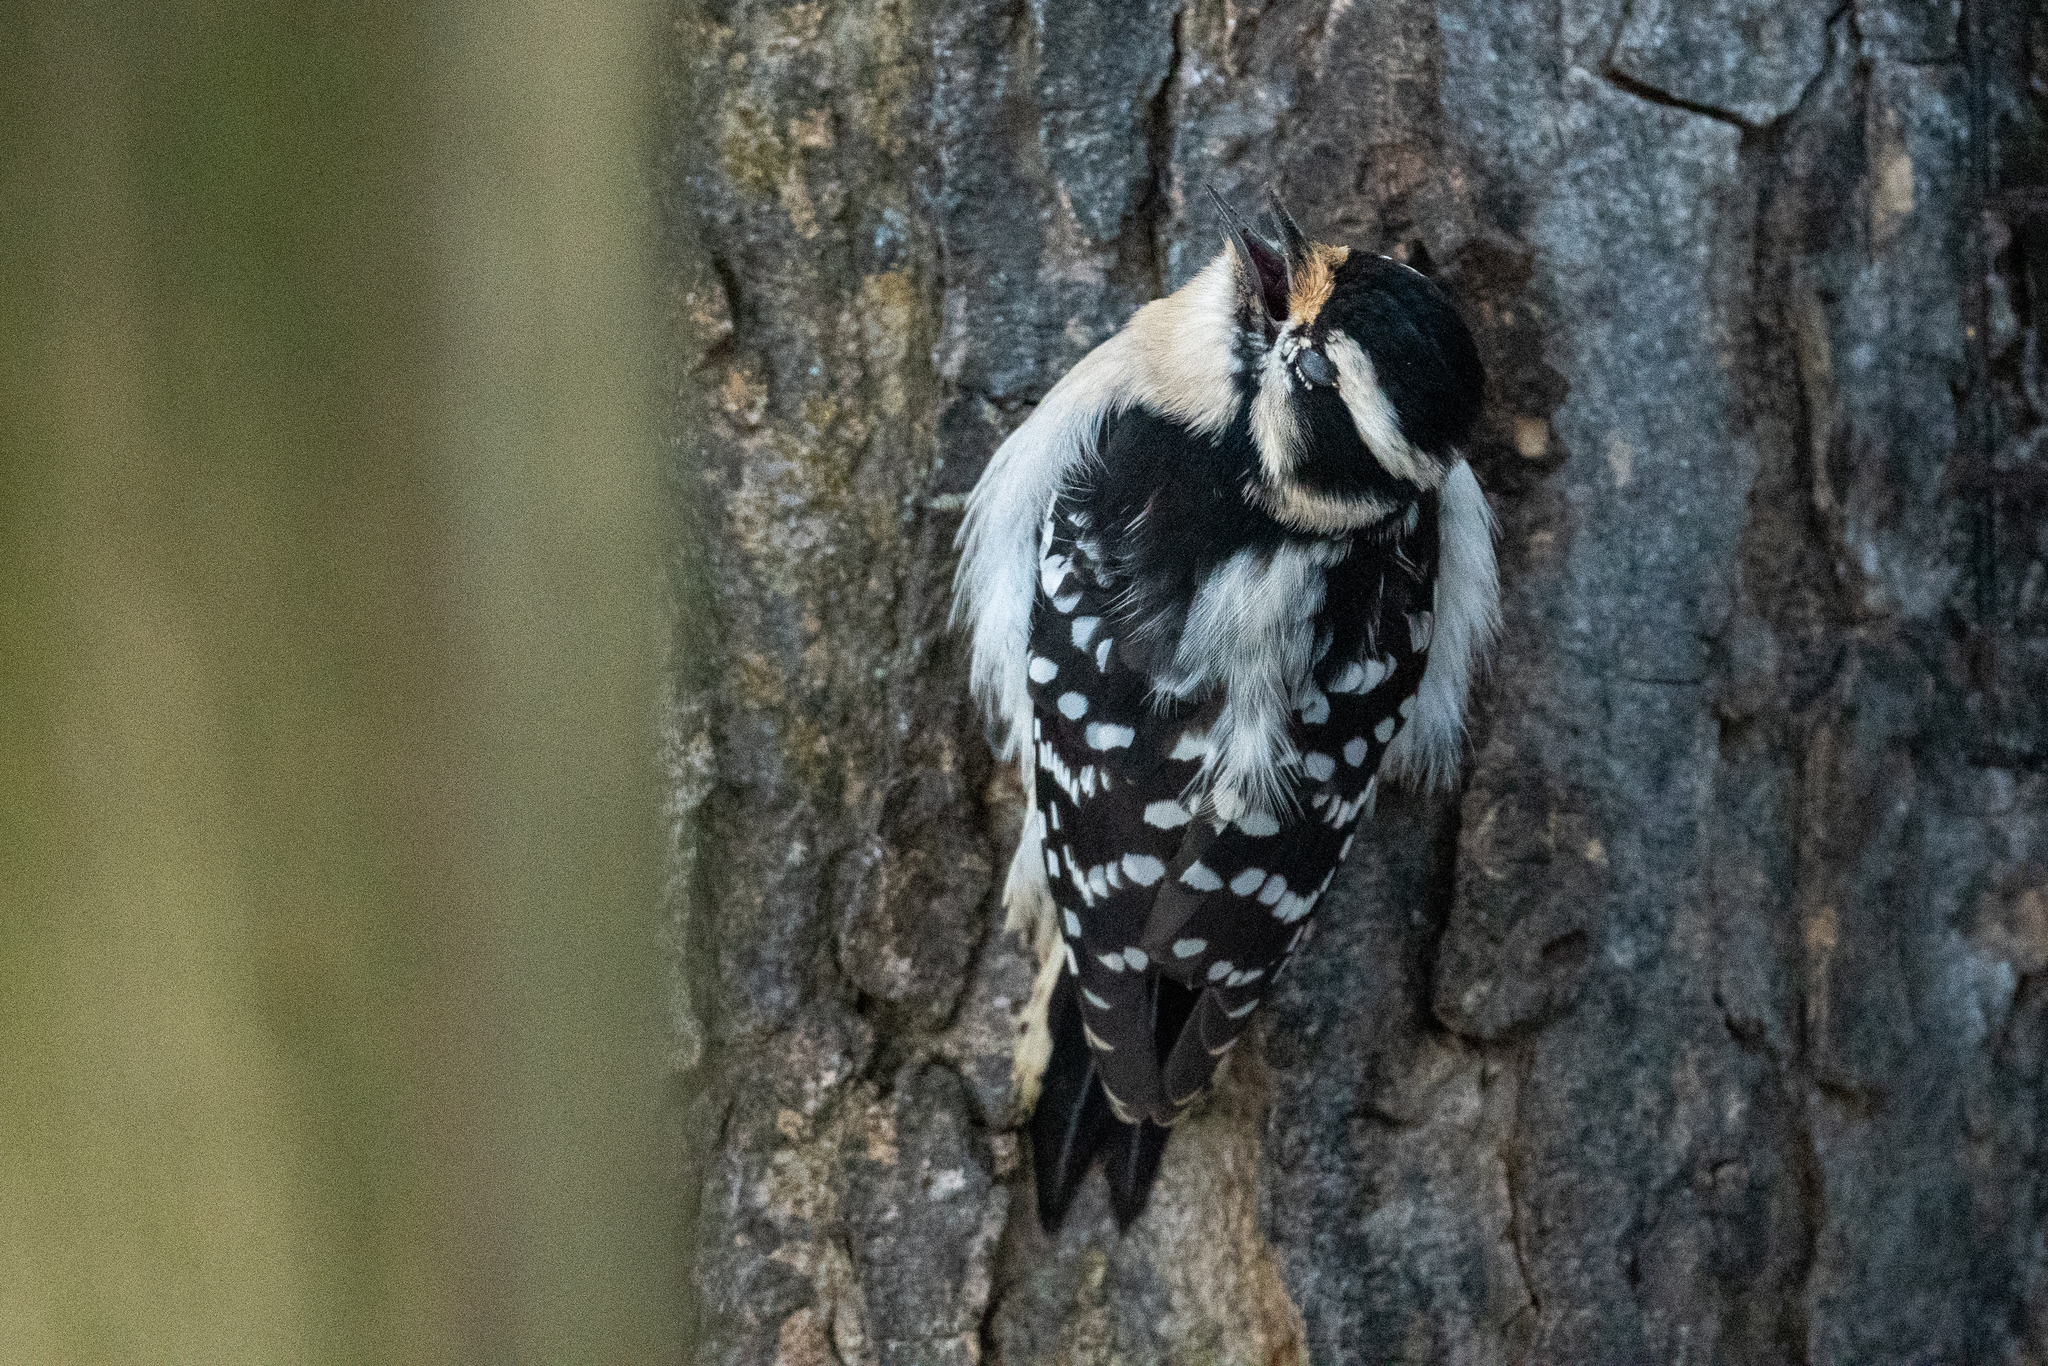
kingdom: Animalia
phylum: Chordata
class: Aves
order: Piciformes
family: Picidae
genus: Dryobates
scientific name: Dryobates pubescens
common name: Downy woodpecker
